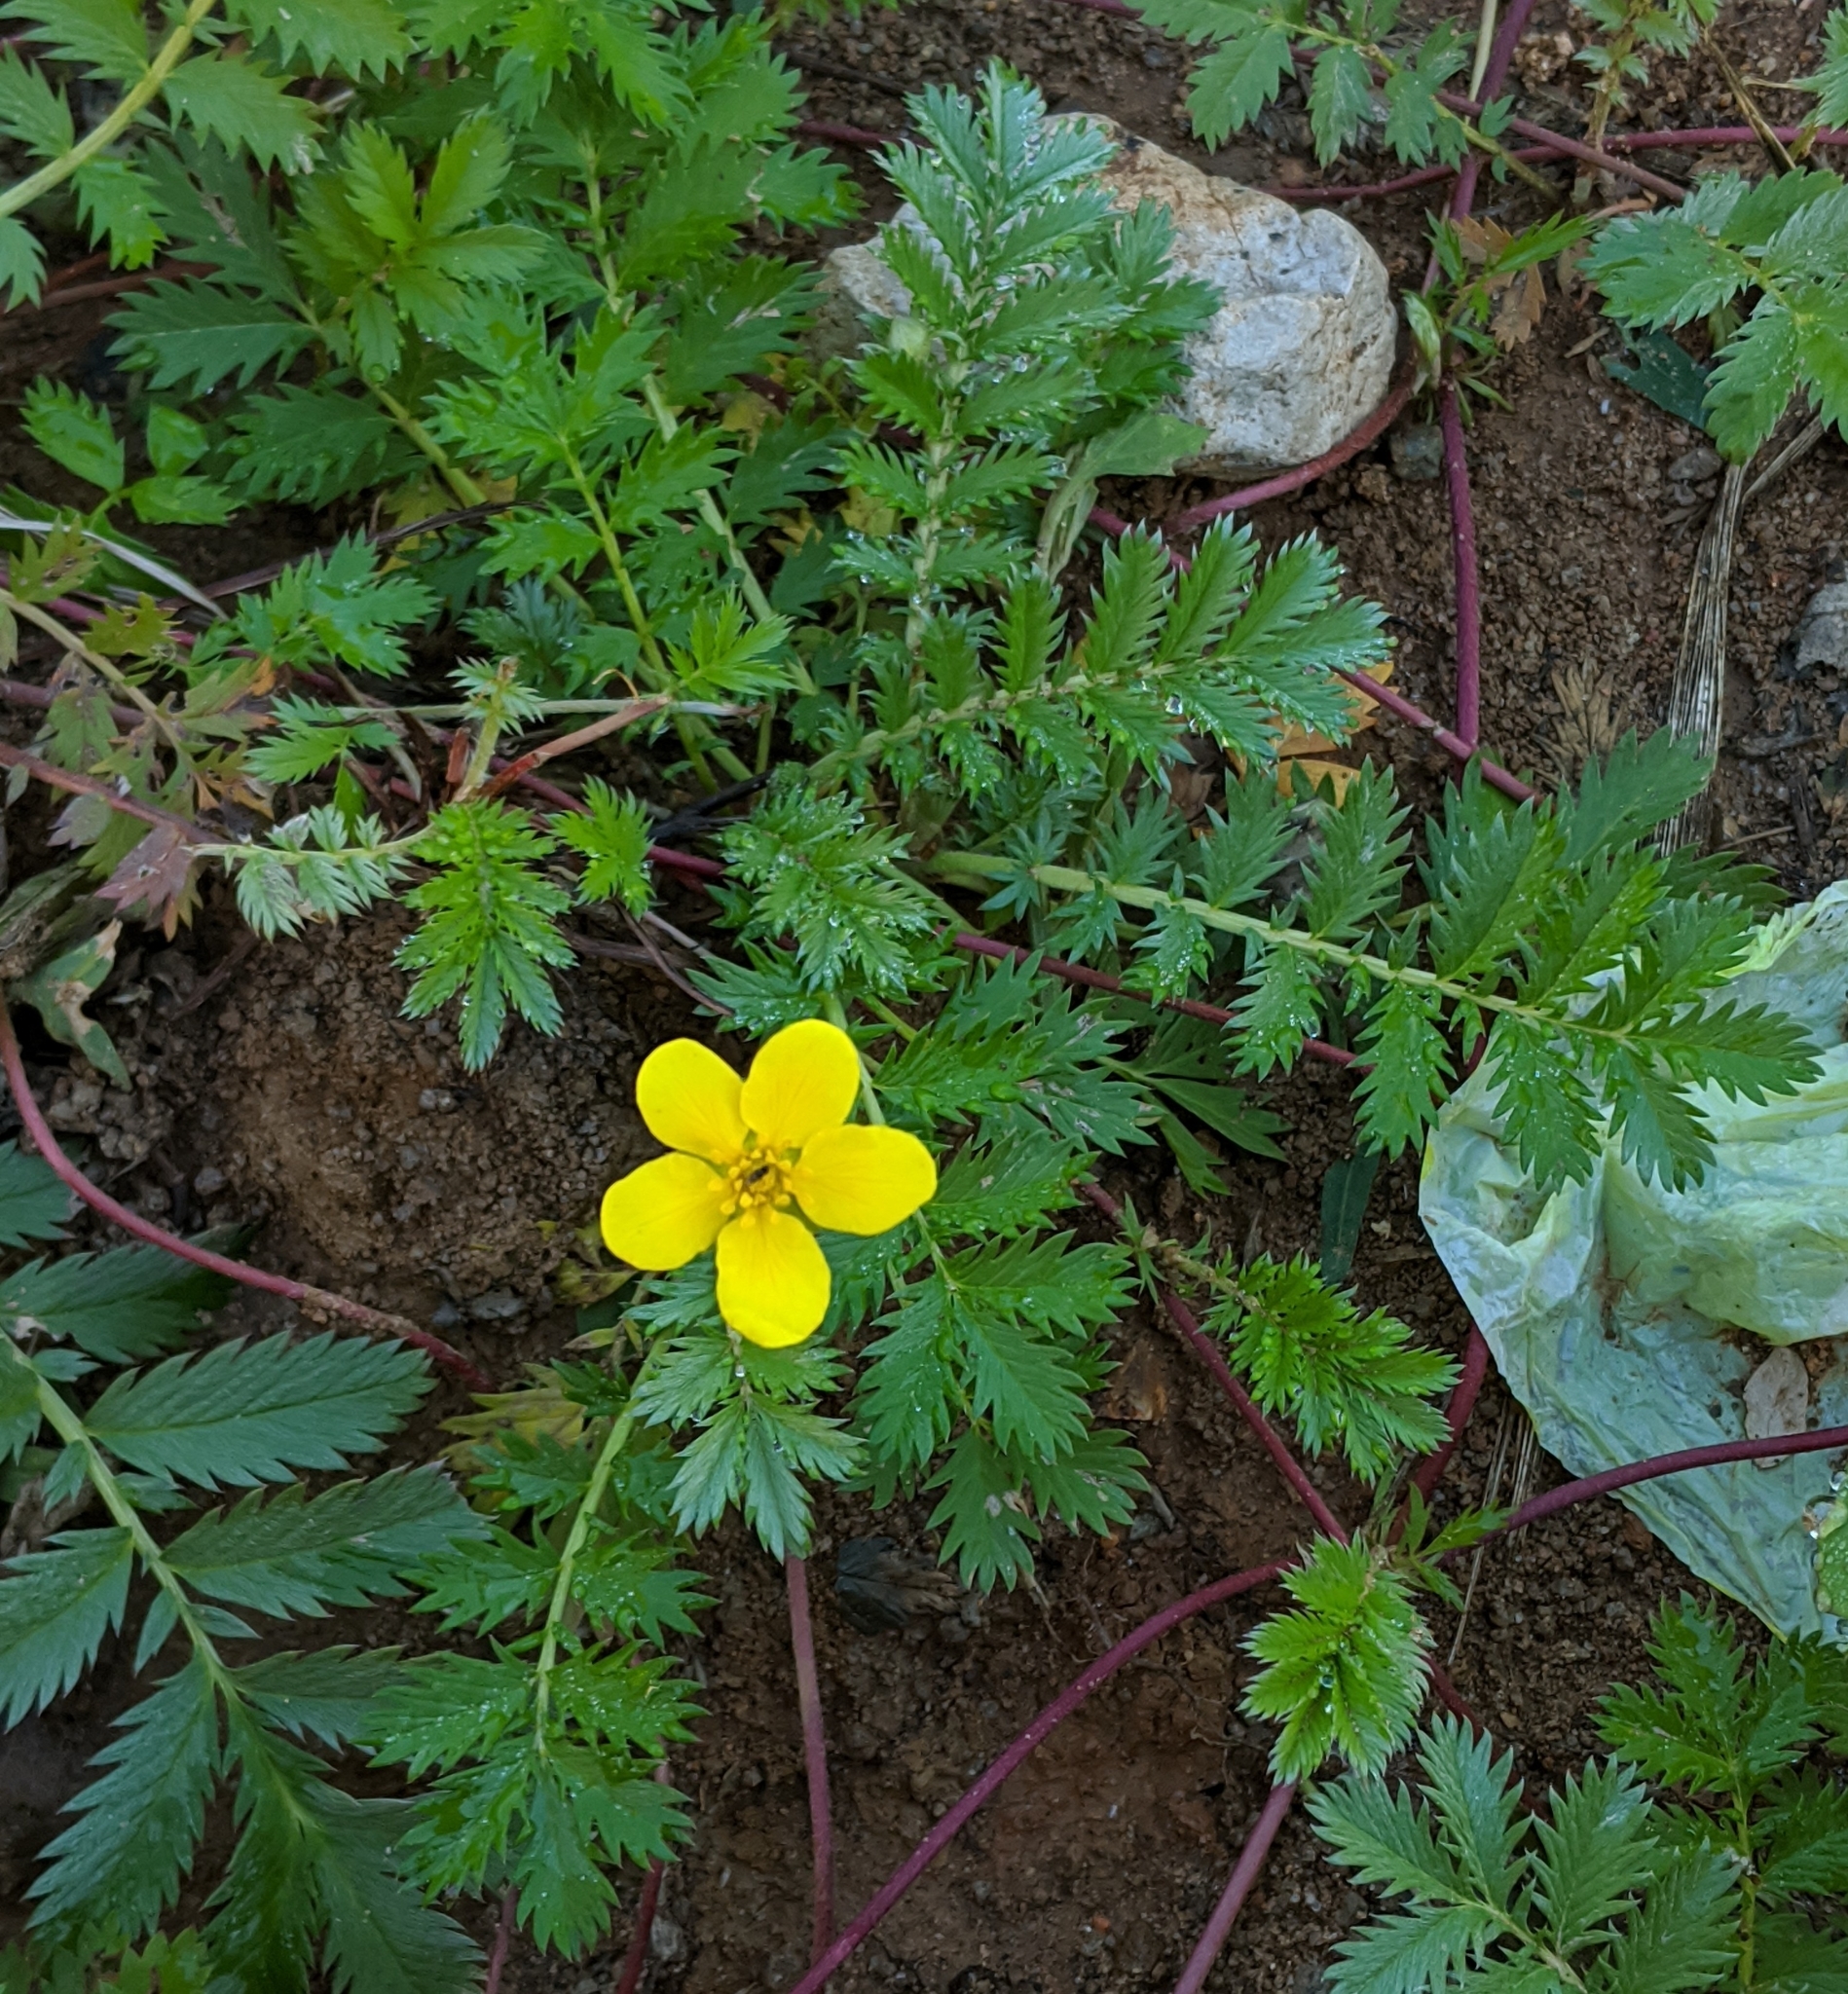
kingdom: Plantae
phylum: Tracheophyta
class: Magnoliopsida
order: Rosales
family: Rosaceae
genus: Argentina
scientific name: Argentina anserina
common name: Common silverweed
